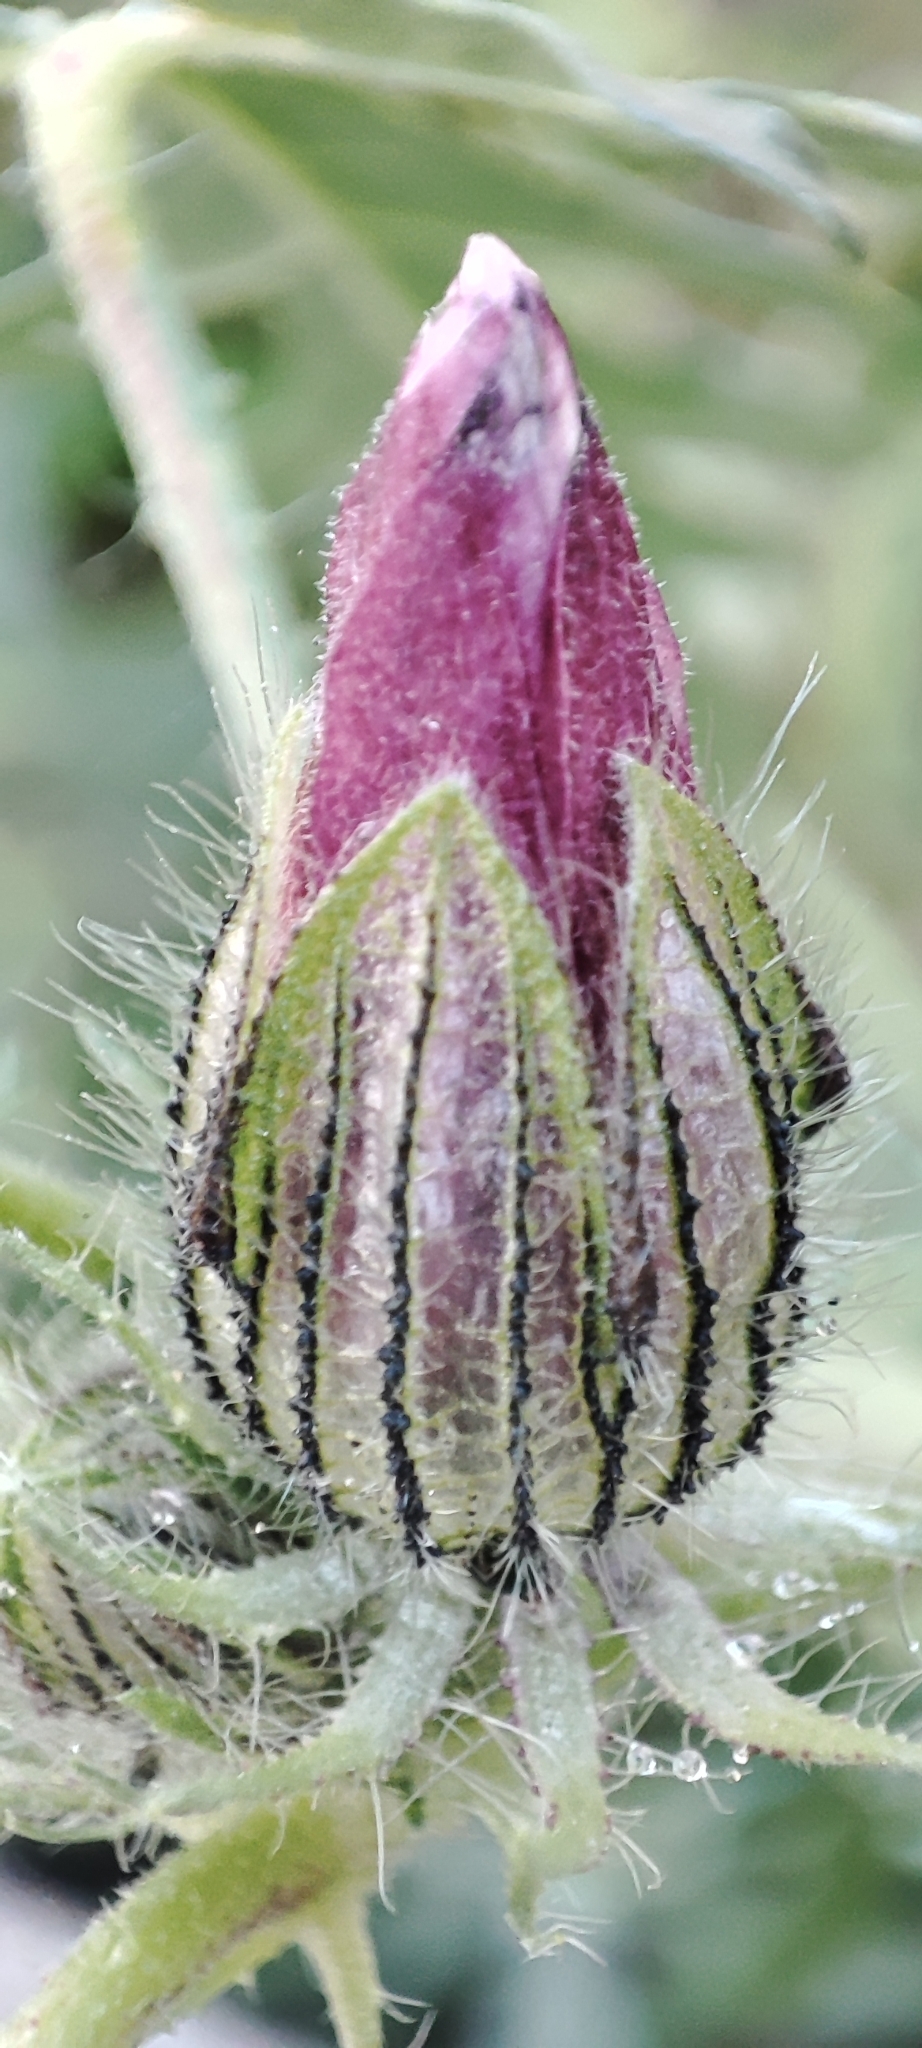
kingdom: Plantae
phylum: Tracheophyta
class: Magnoliopsida
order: Malvales
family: Malvaceae
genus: Hibiscus
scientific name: Hibiscus trionum
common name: Bladder ketmia
